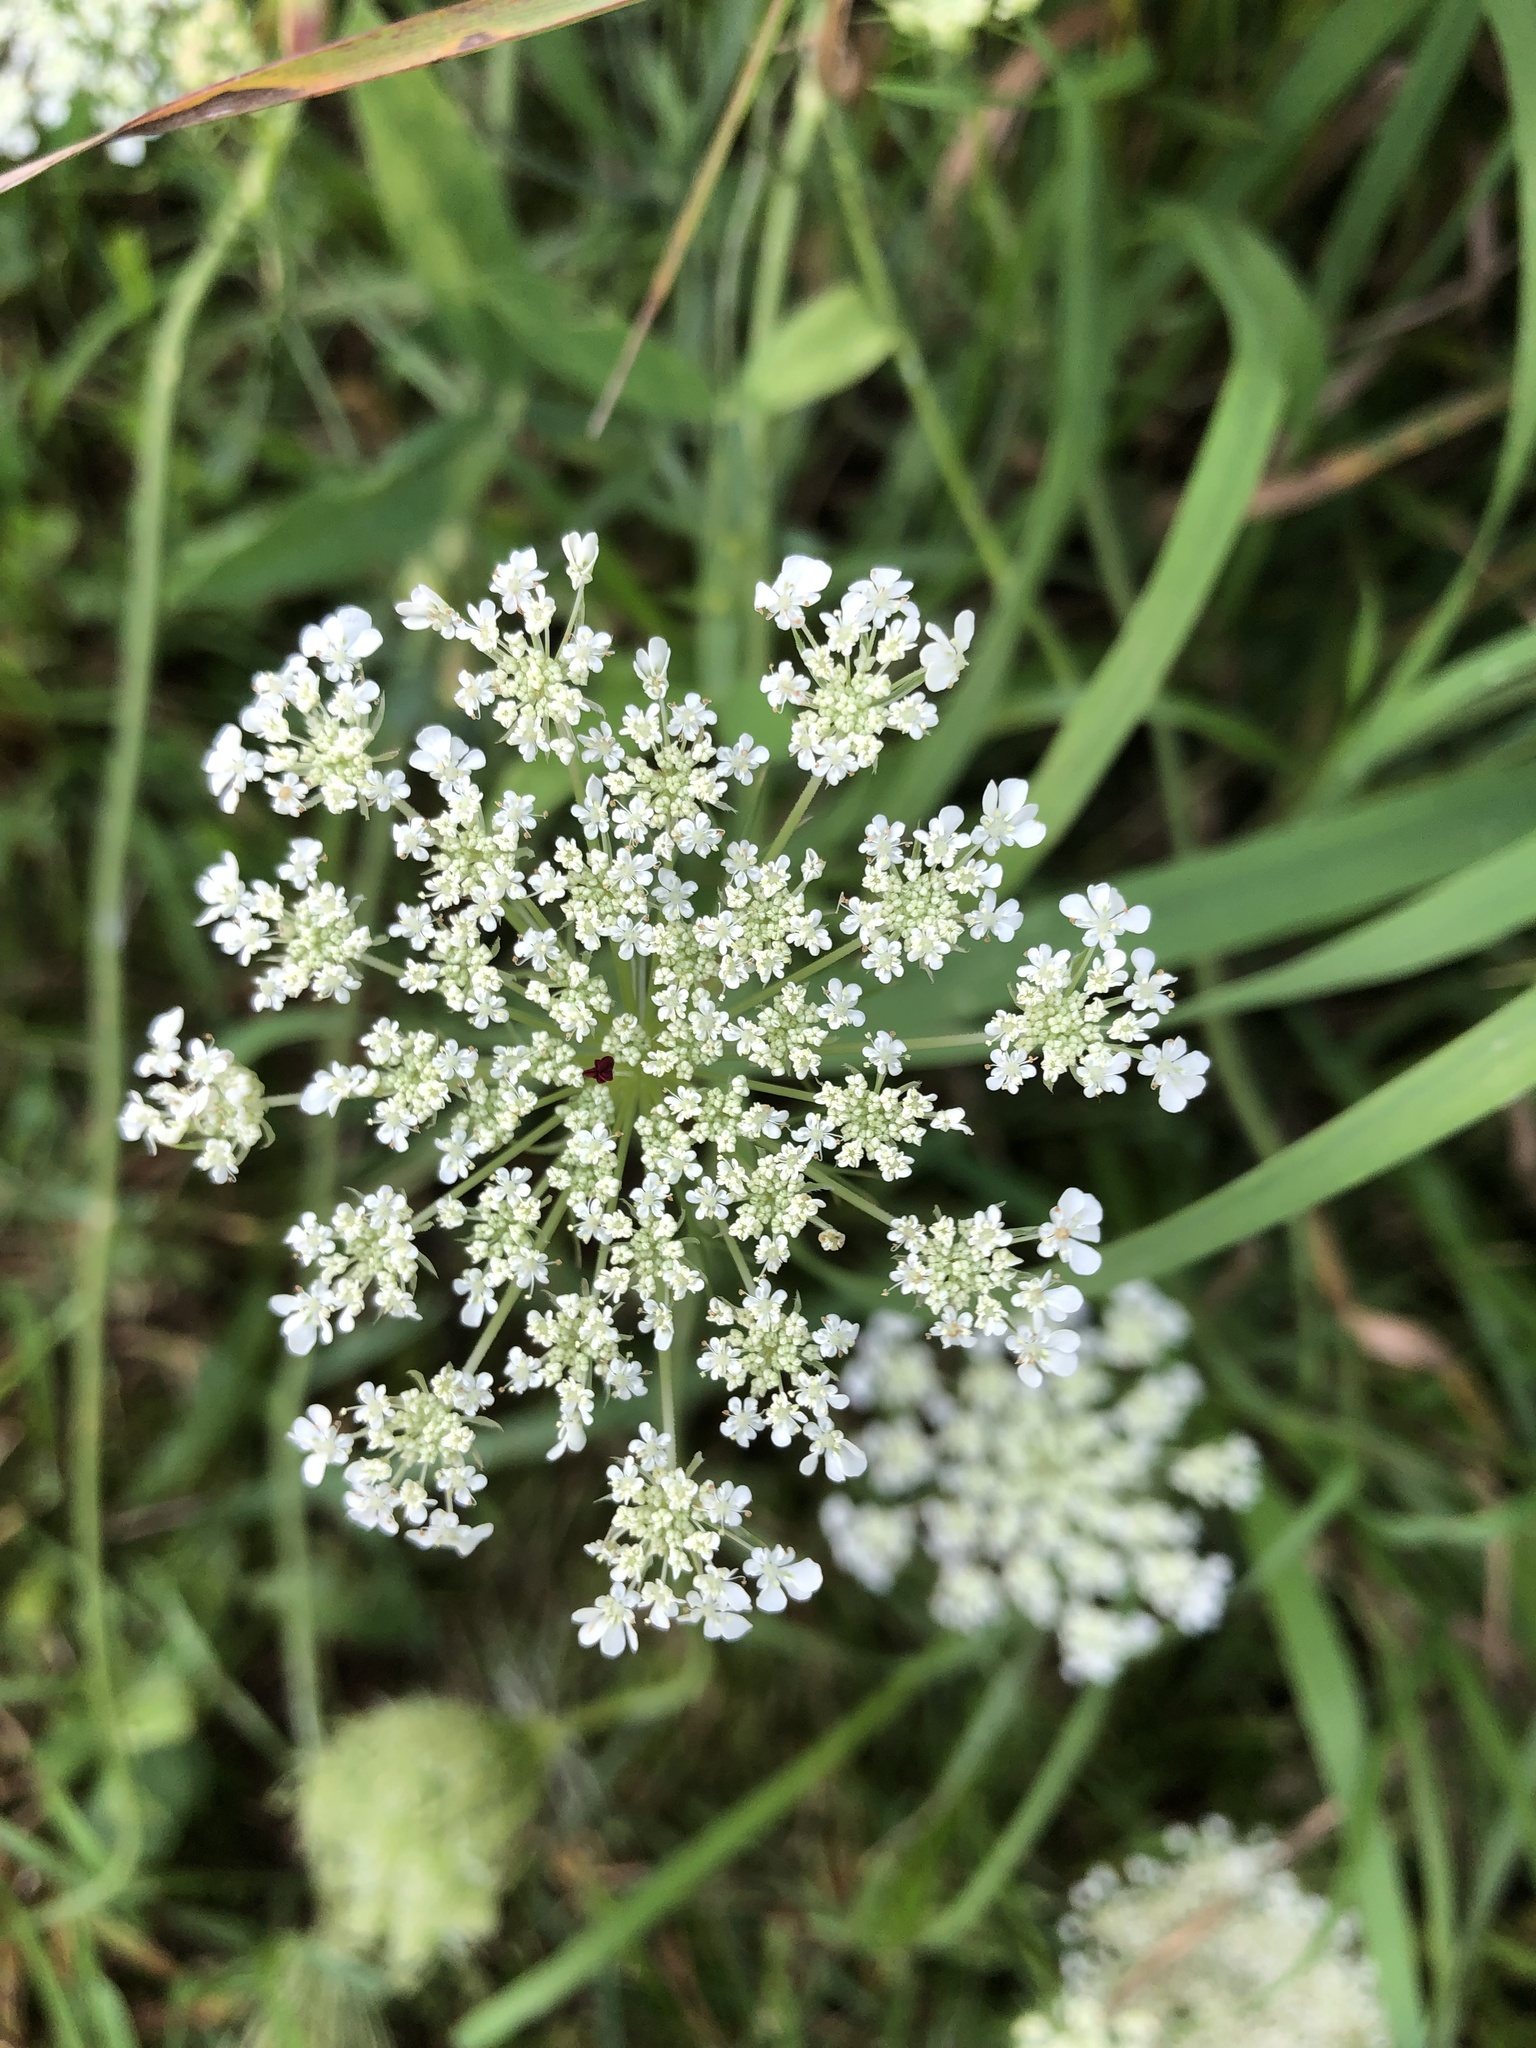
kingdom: Plantae
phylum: Tracheophyta
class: Magnoliopsida
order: Apiales
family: Apiaceae
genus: Daucus
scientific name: Daucus carota
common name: Wild carrot
